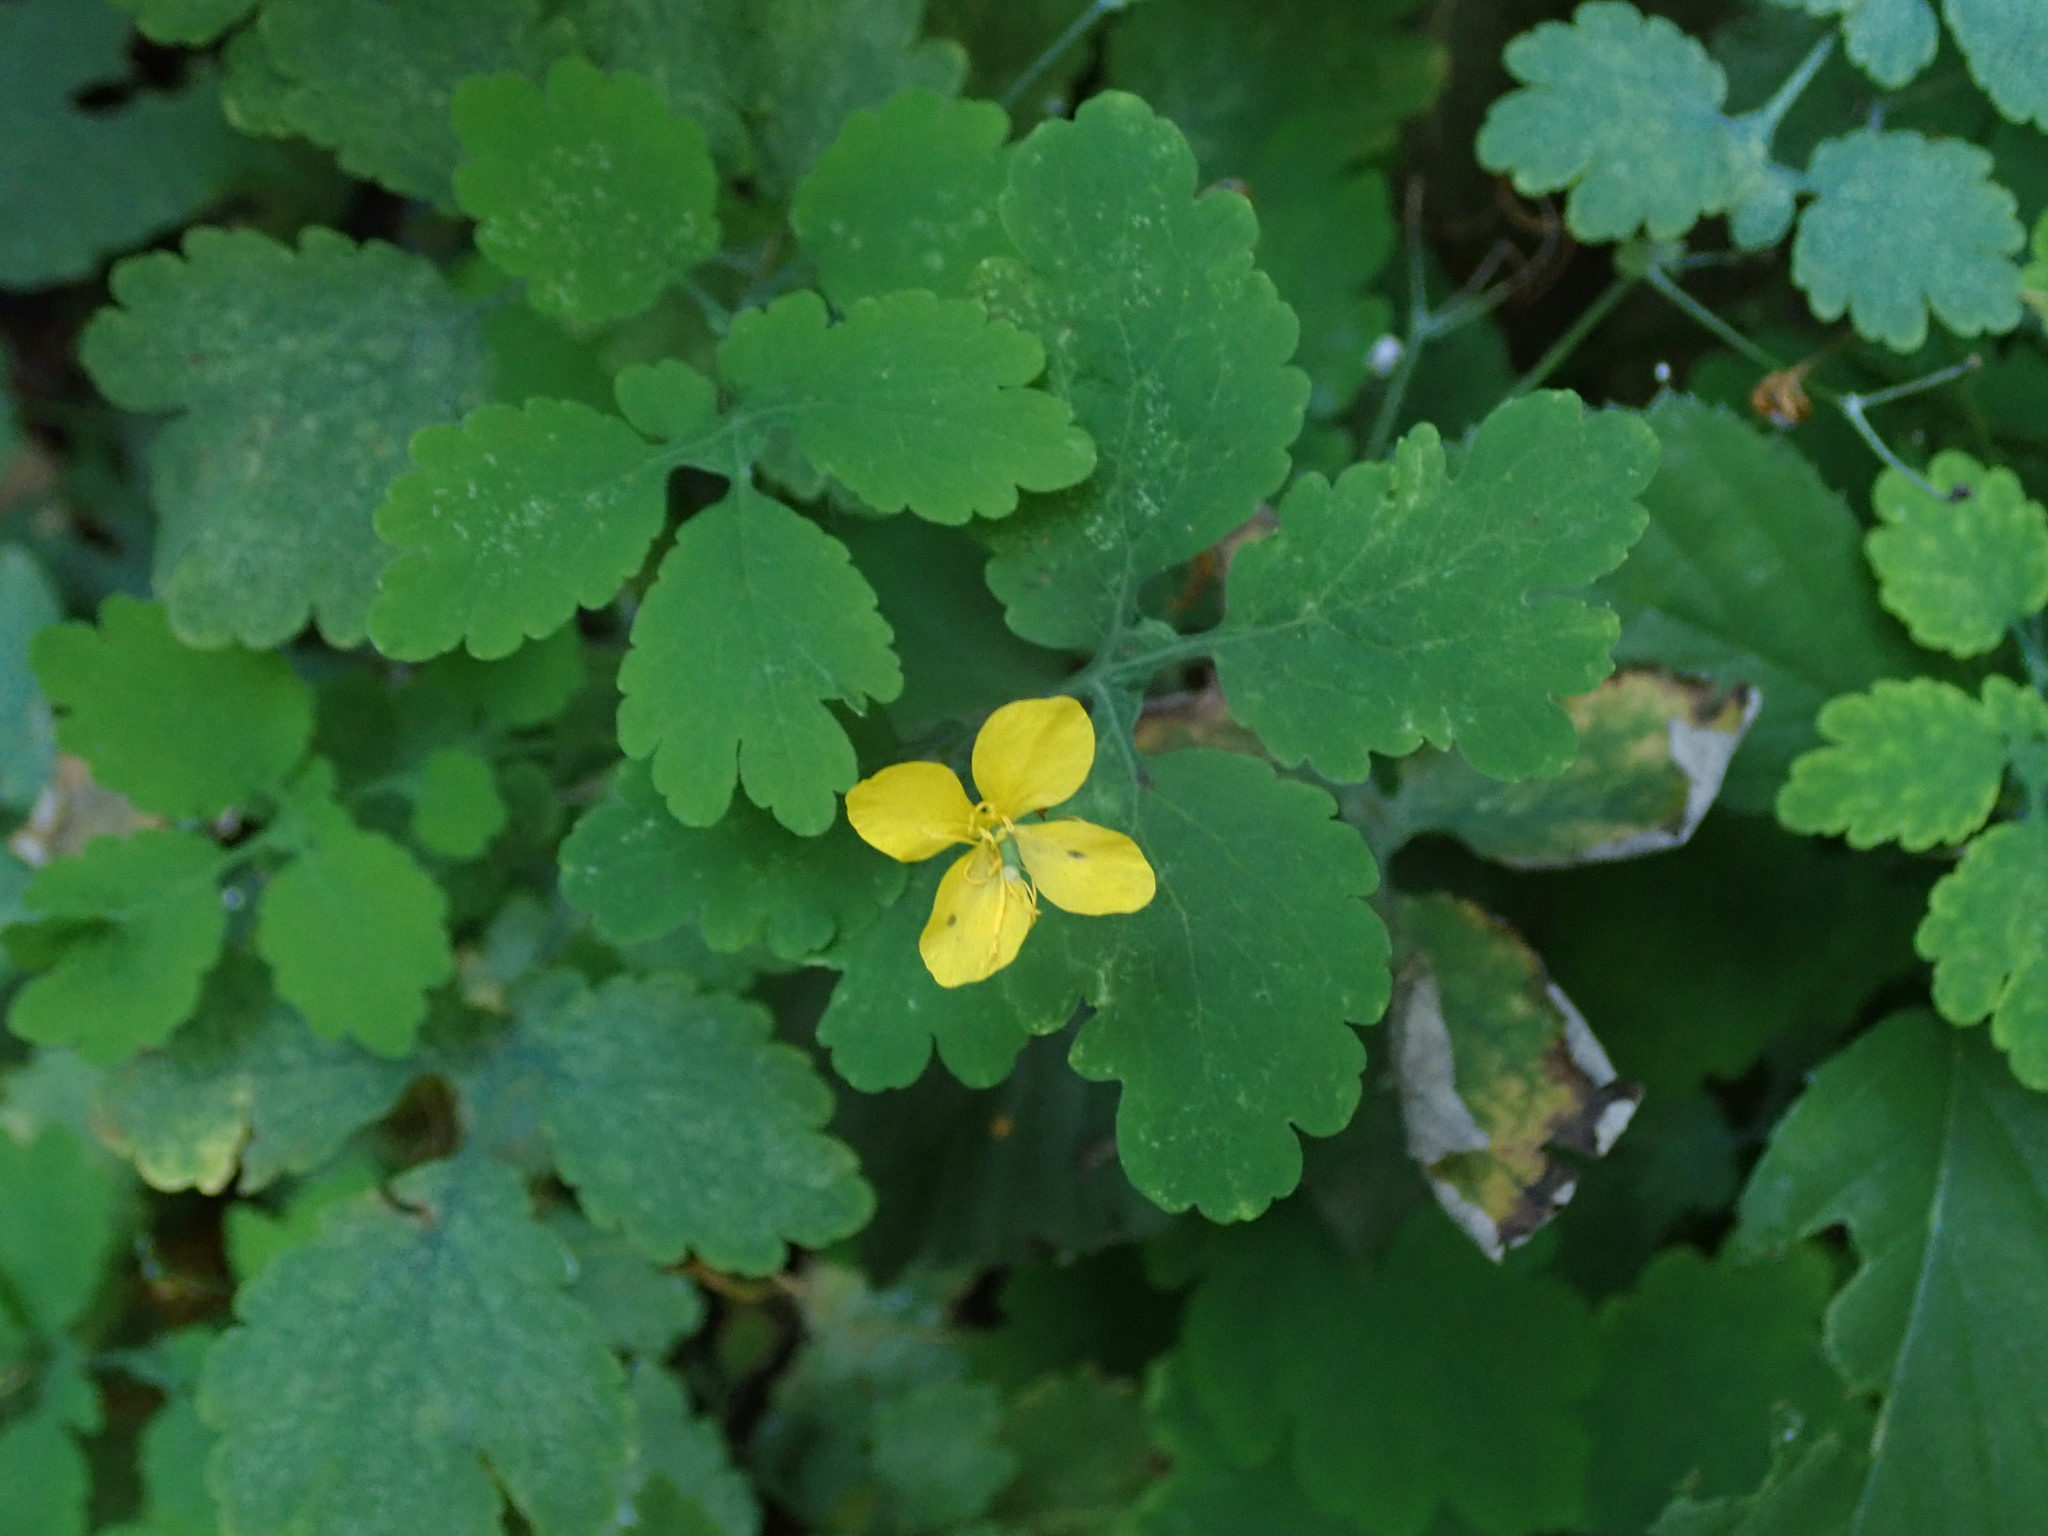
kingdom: Plantae
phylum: Tracheophyta
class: Magnoliopsida
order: Ranunculales
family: Papaveraceae
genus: Chelidonium
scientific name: Chelidonium majus
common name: Greater celandine
